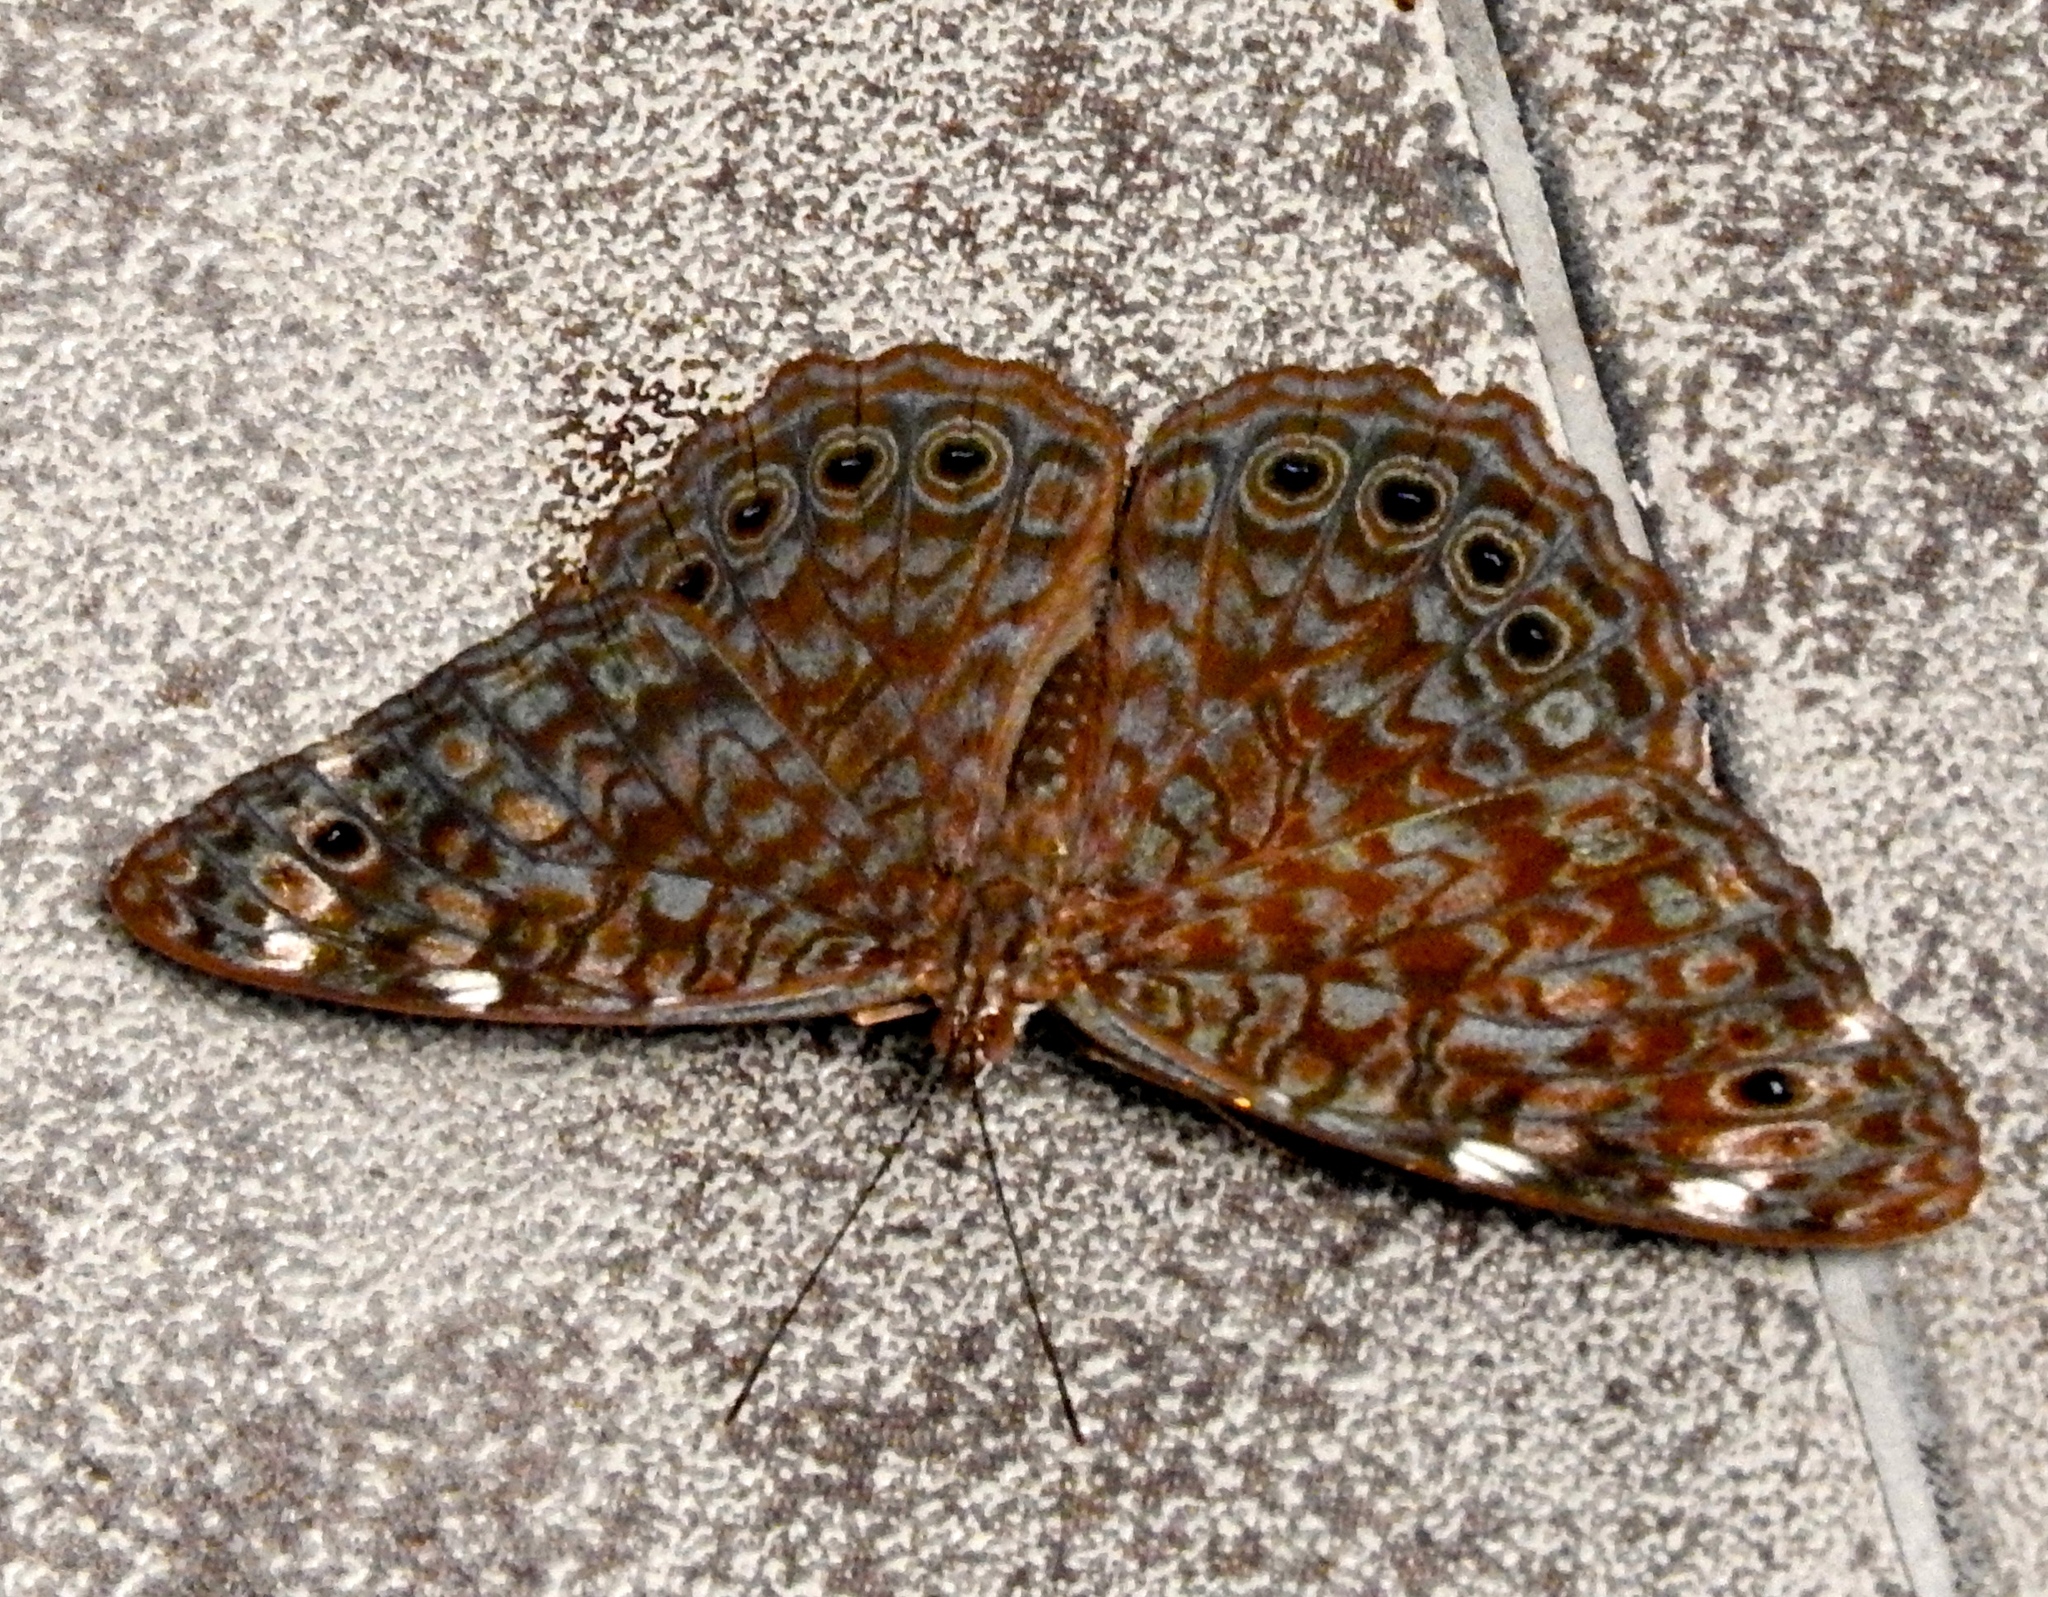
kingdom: Animalia
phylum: Arthropoda
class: Insecta
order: Lepidoptera
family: Nymphalidae
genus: Hamadryas
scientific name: Hamadryas lelaps
